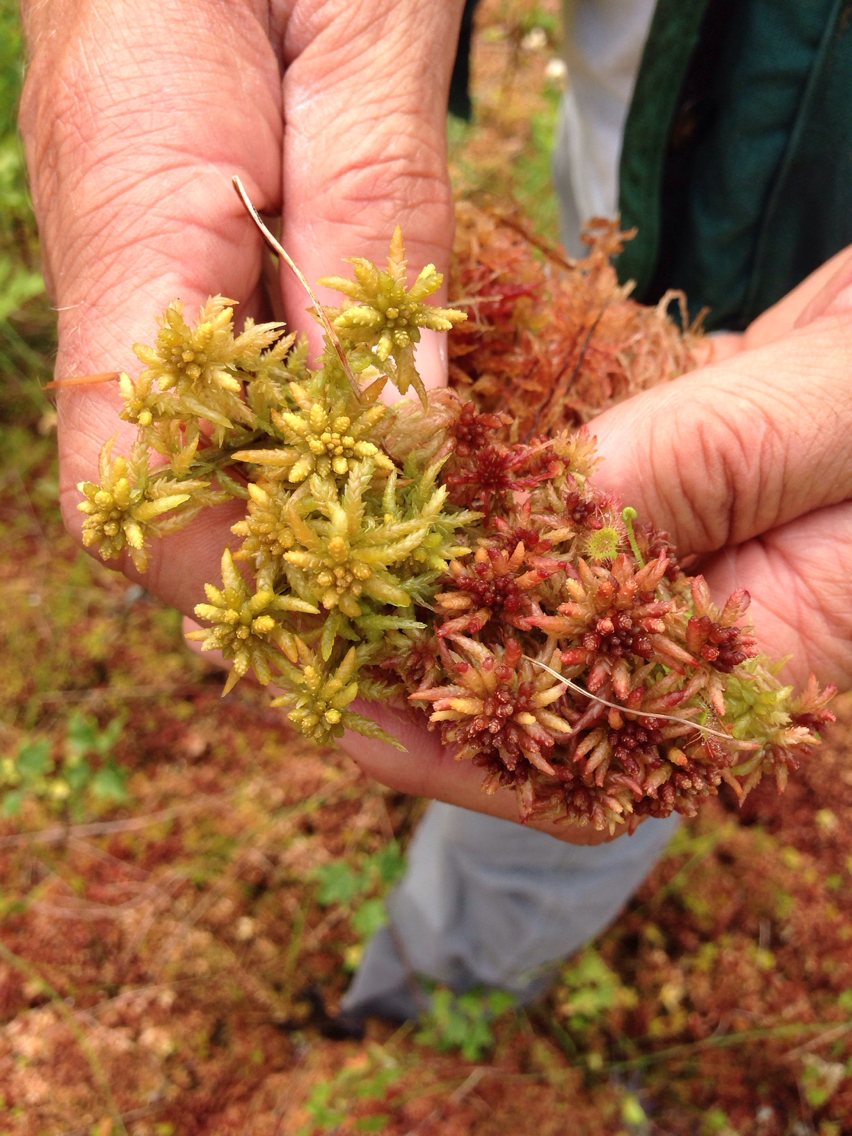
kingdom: Plantae
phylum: Bryophyta
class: Sphagnopsida
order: Sphagnales
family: Sphagnaceae
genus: Sphagnum
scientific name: Sphagnum papillosum
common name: Papillose peat moss
